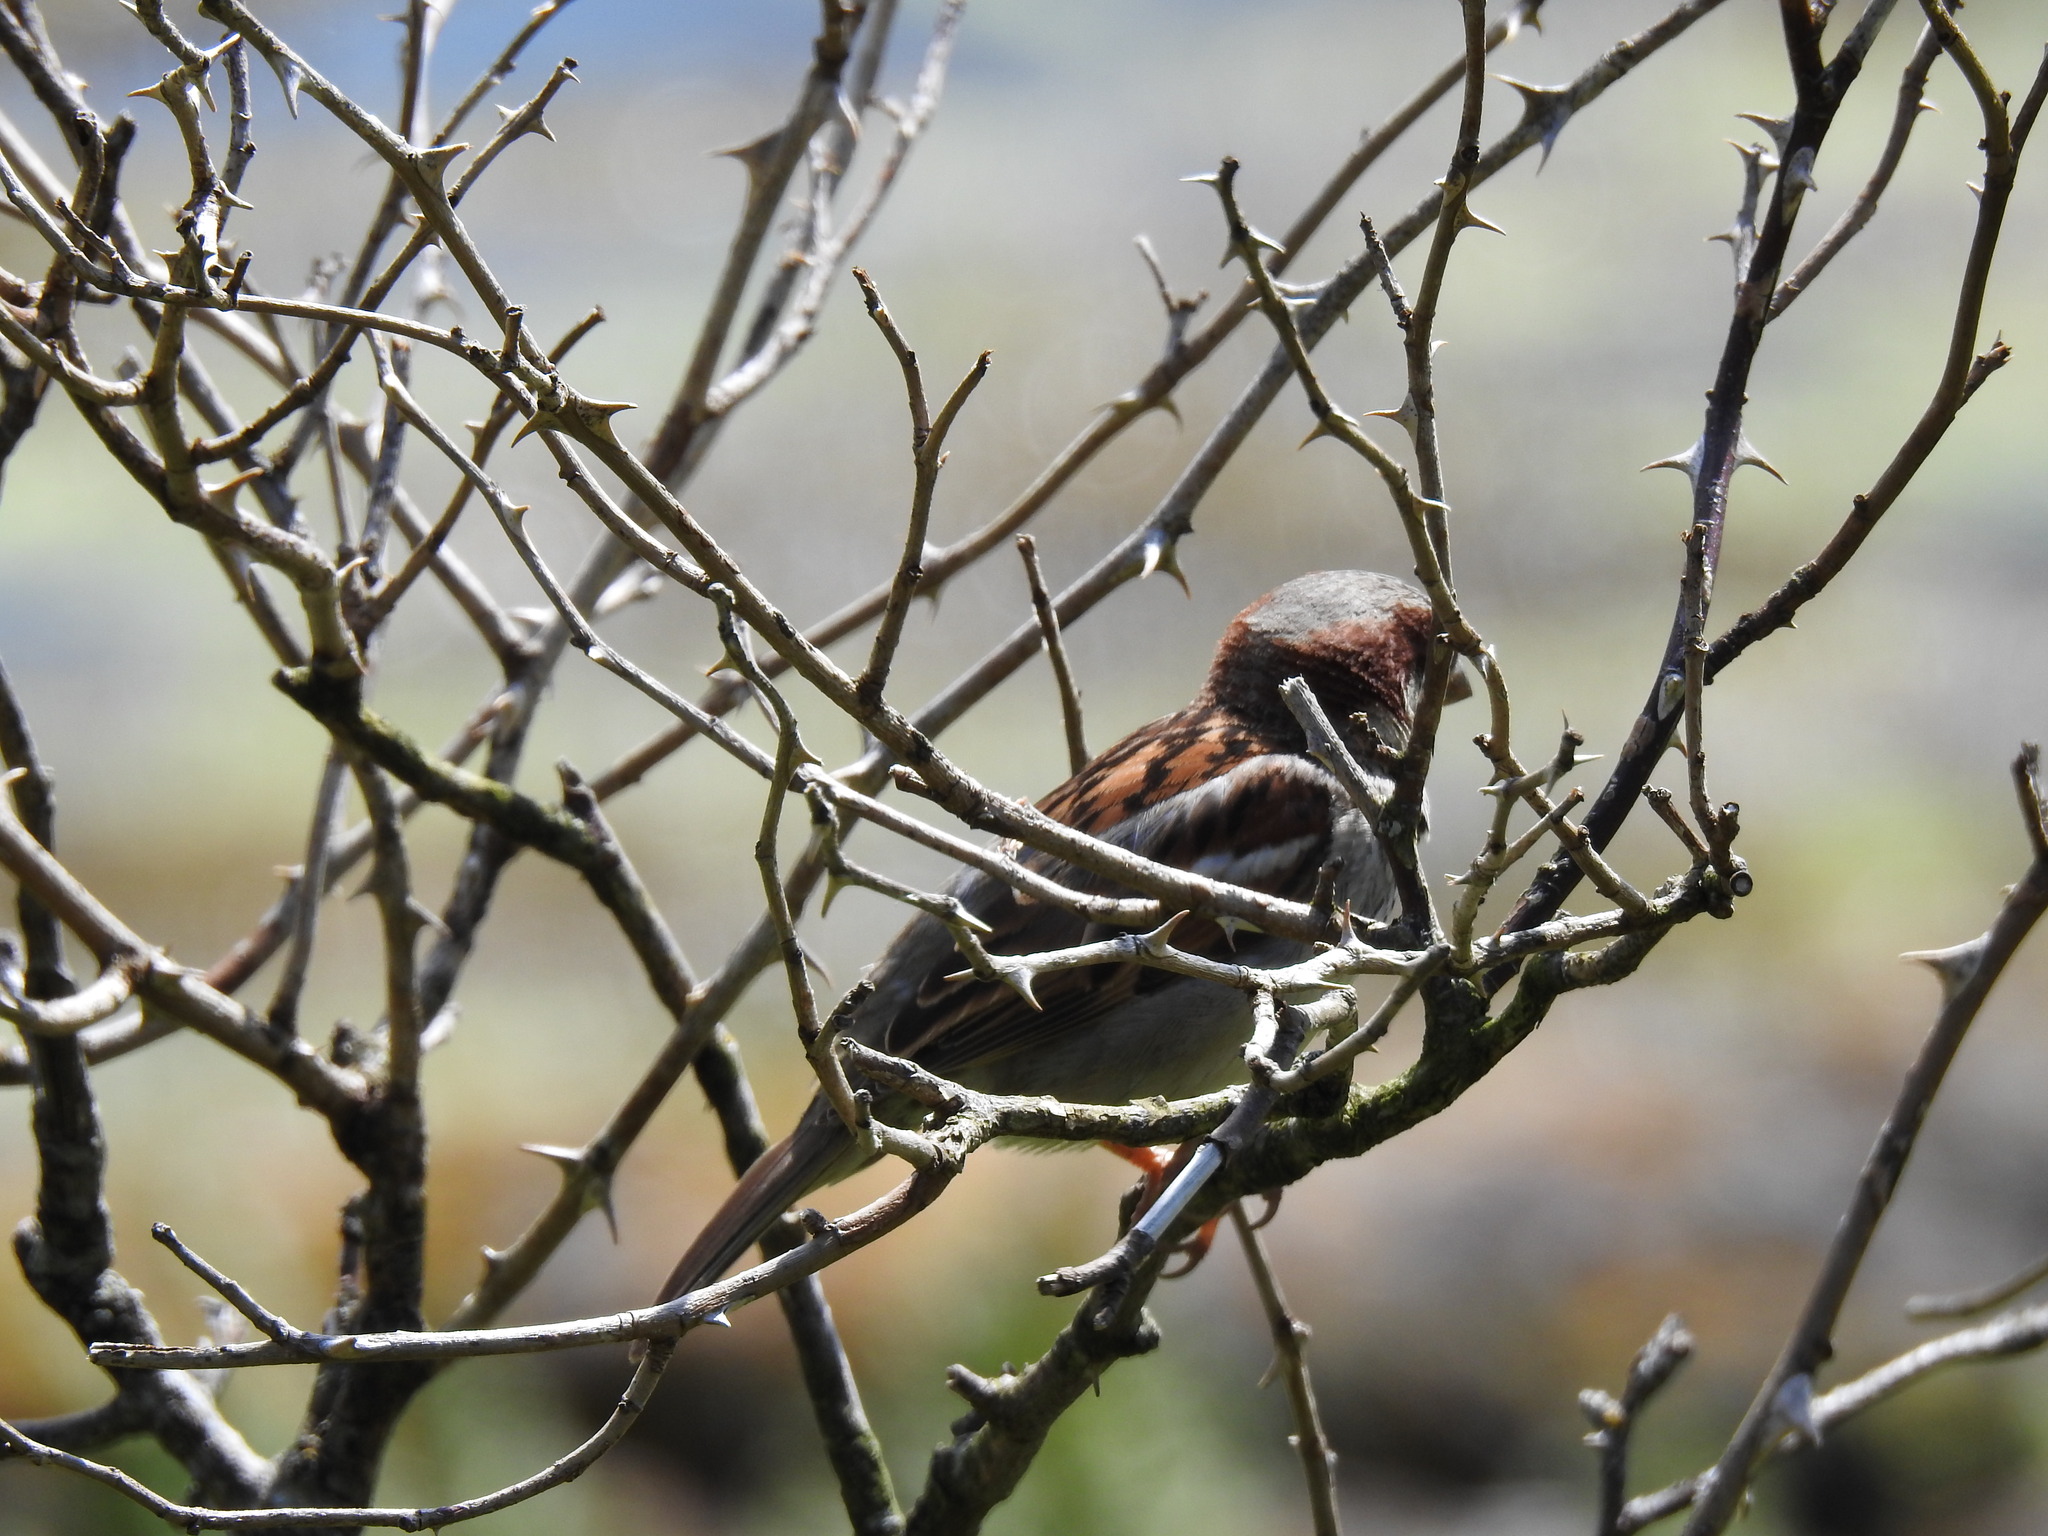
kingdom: Animalia
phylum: Chordata
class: Aves
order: Passeriformes
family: Passeridae
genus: Passer
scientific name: Passer domesticus
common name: House sparrow
